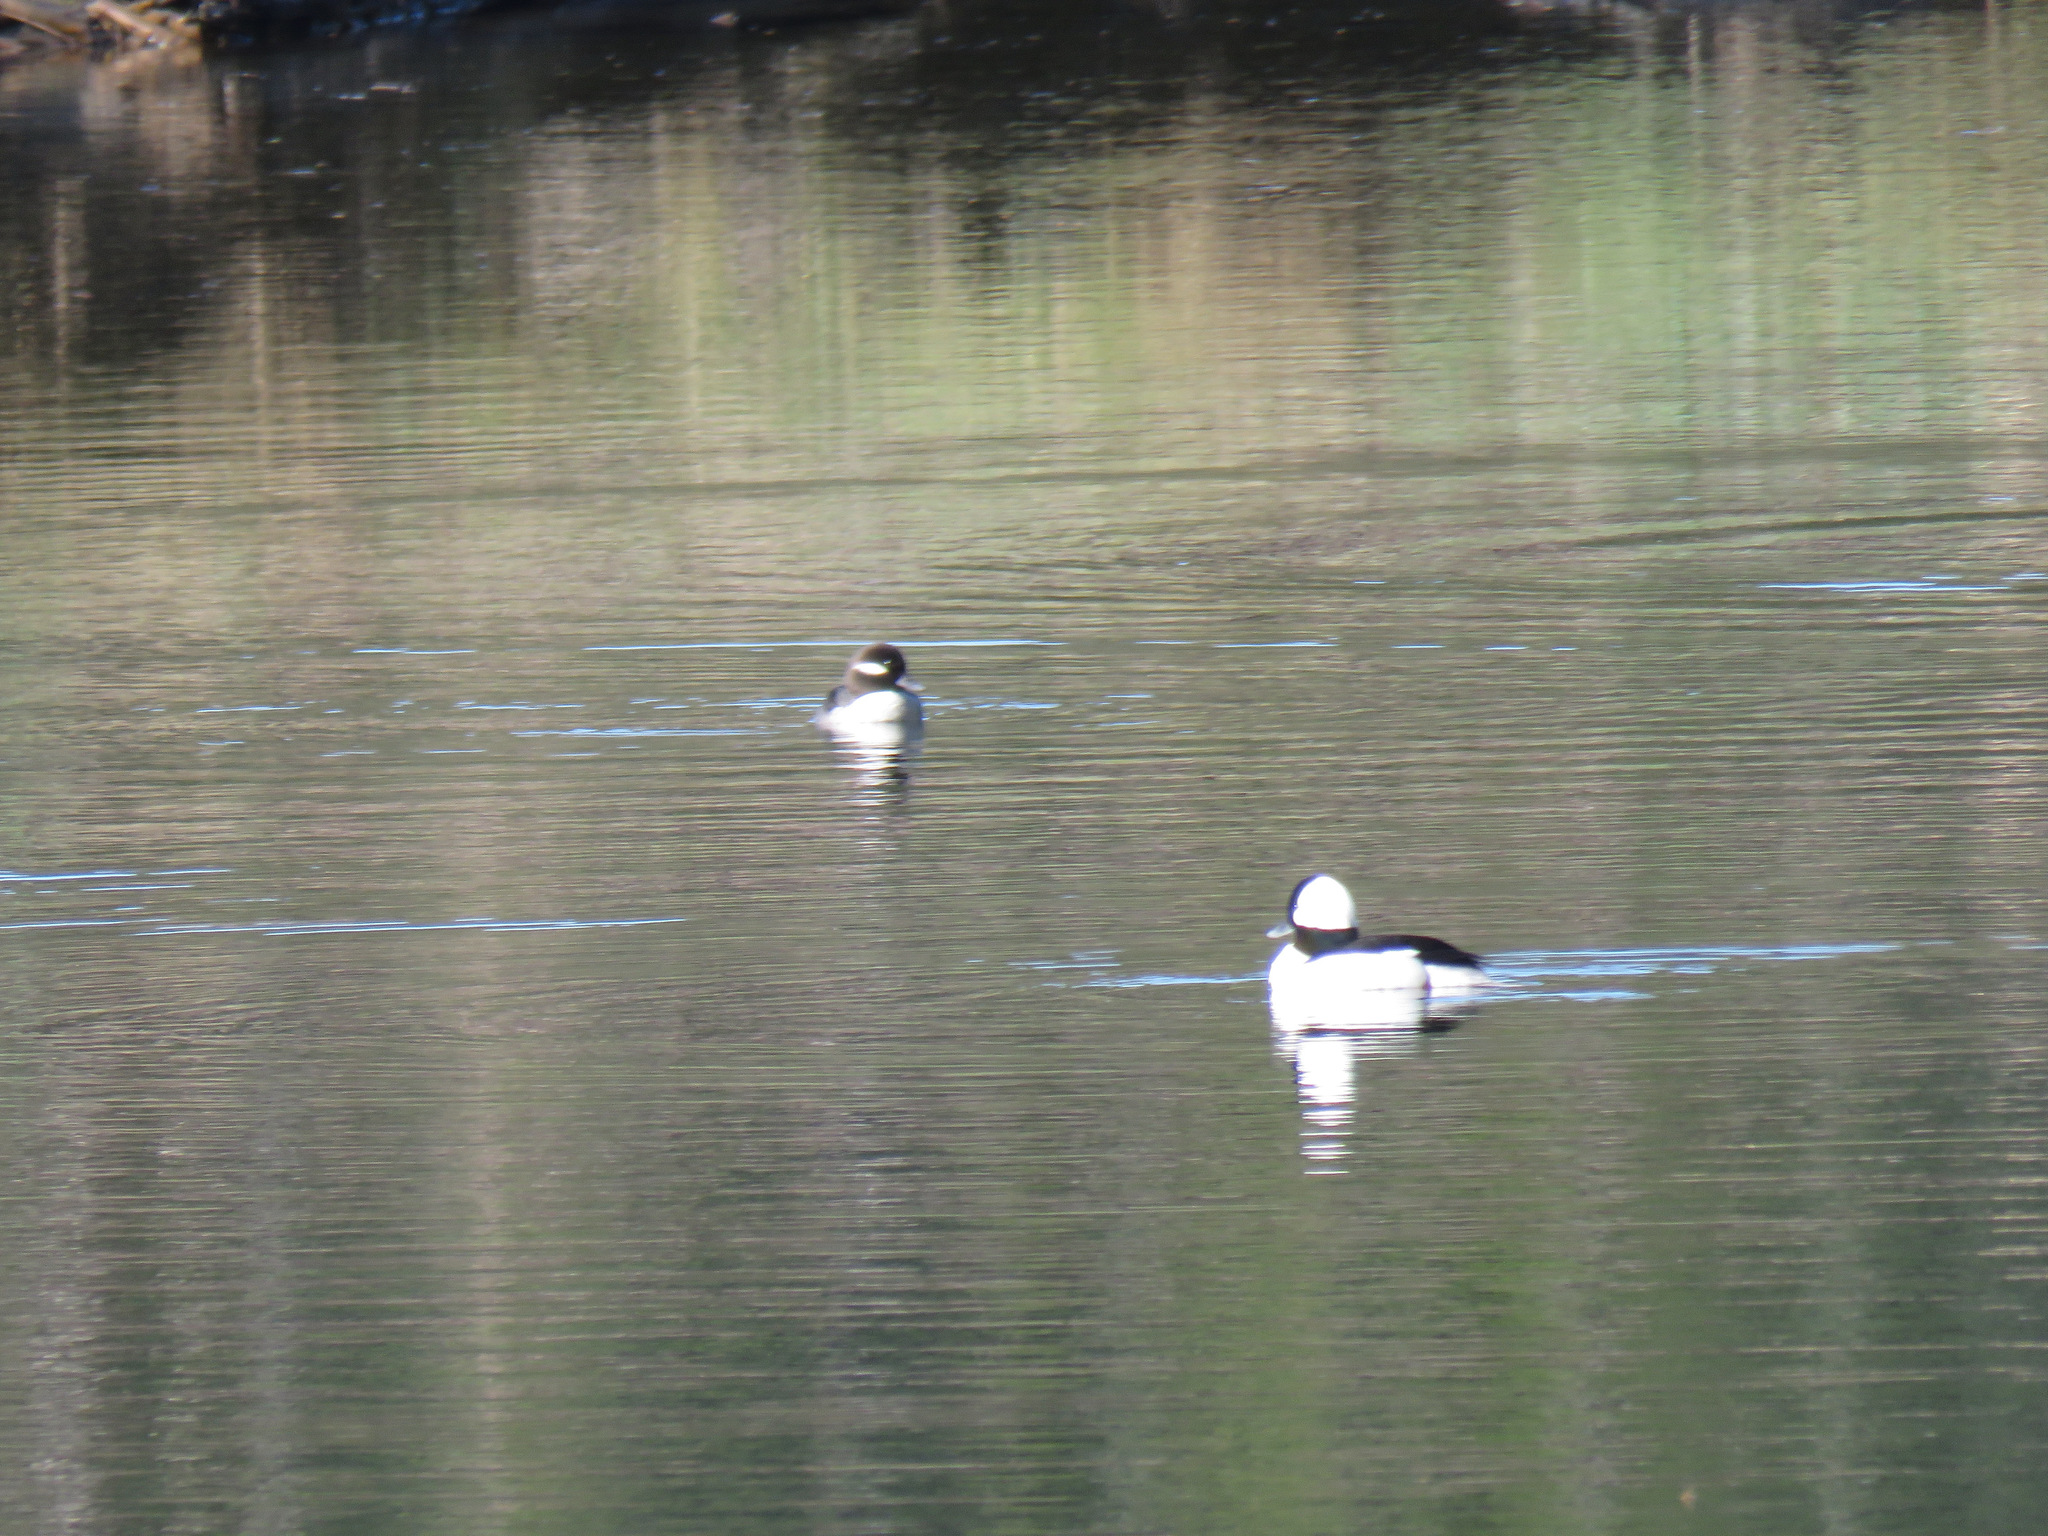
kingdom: Animalia
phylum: Chordata
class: Aves
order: Anseriformes
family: Anatidae
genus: Bucephala
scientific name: Bucephala albeola
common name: Bufflehead
